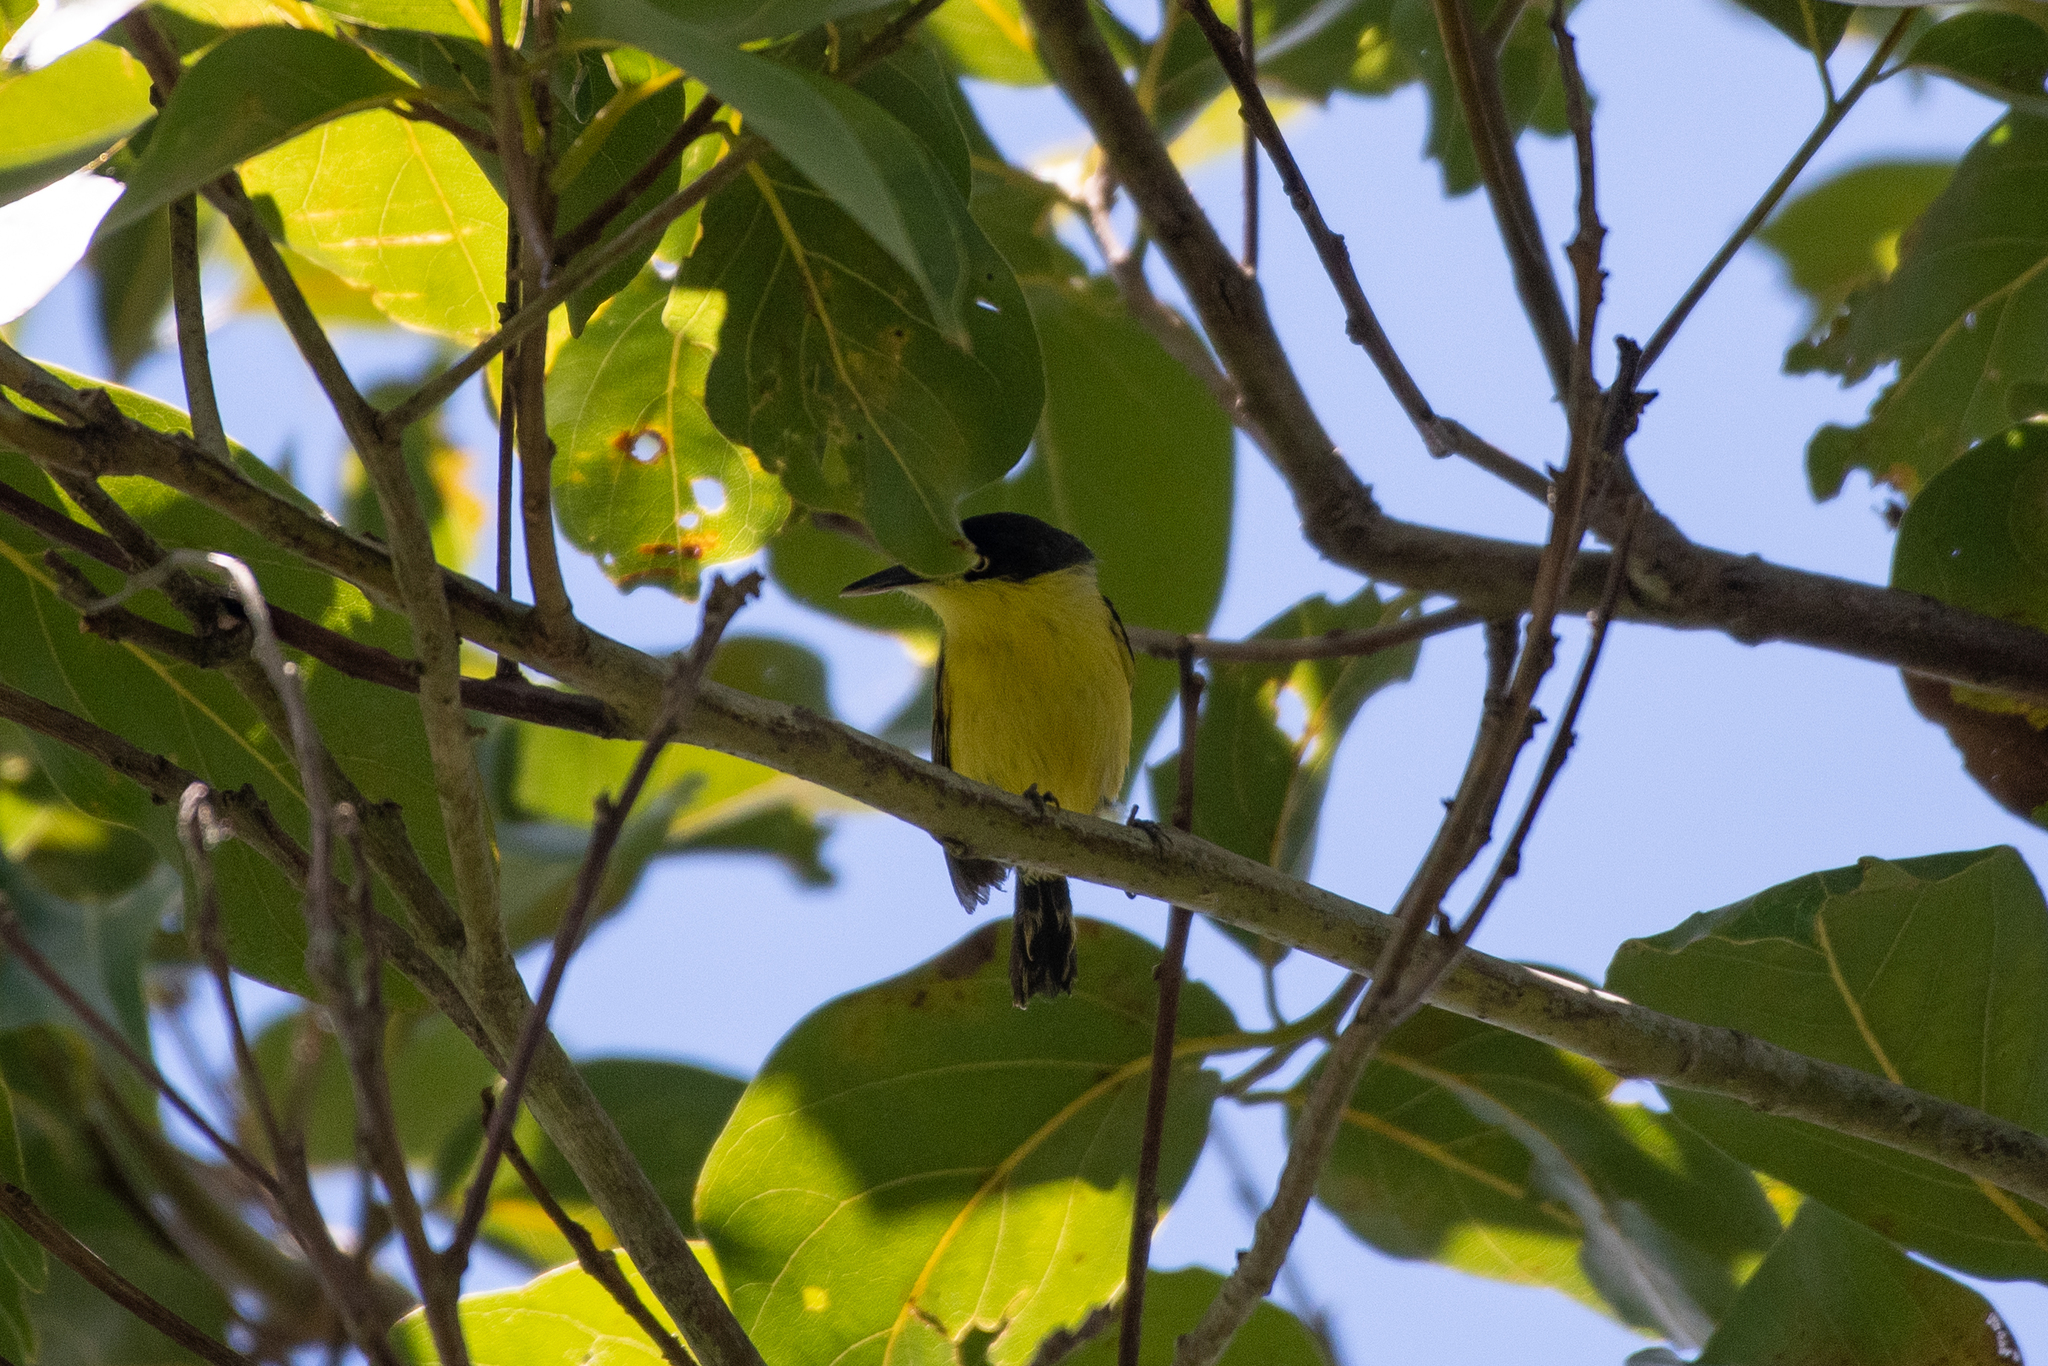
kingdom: Animalia
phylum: Chordata
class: Aves
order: Passeriformes
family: Tyrannidae
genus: Todirostrum
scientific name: Todirostrum cinereum
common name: Common tody-flycatcher
